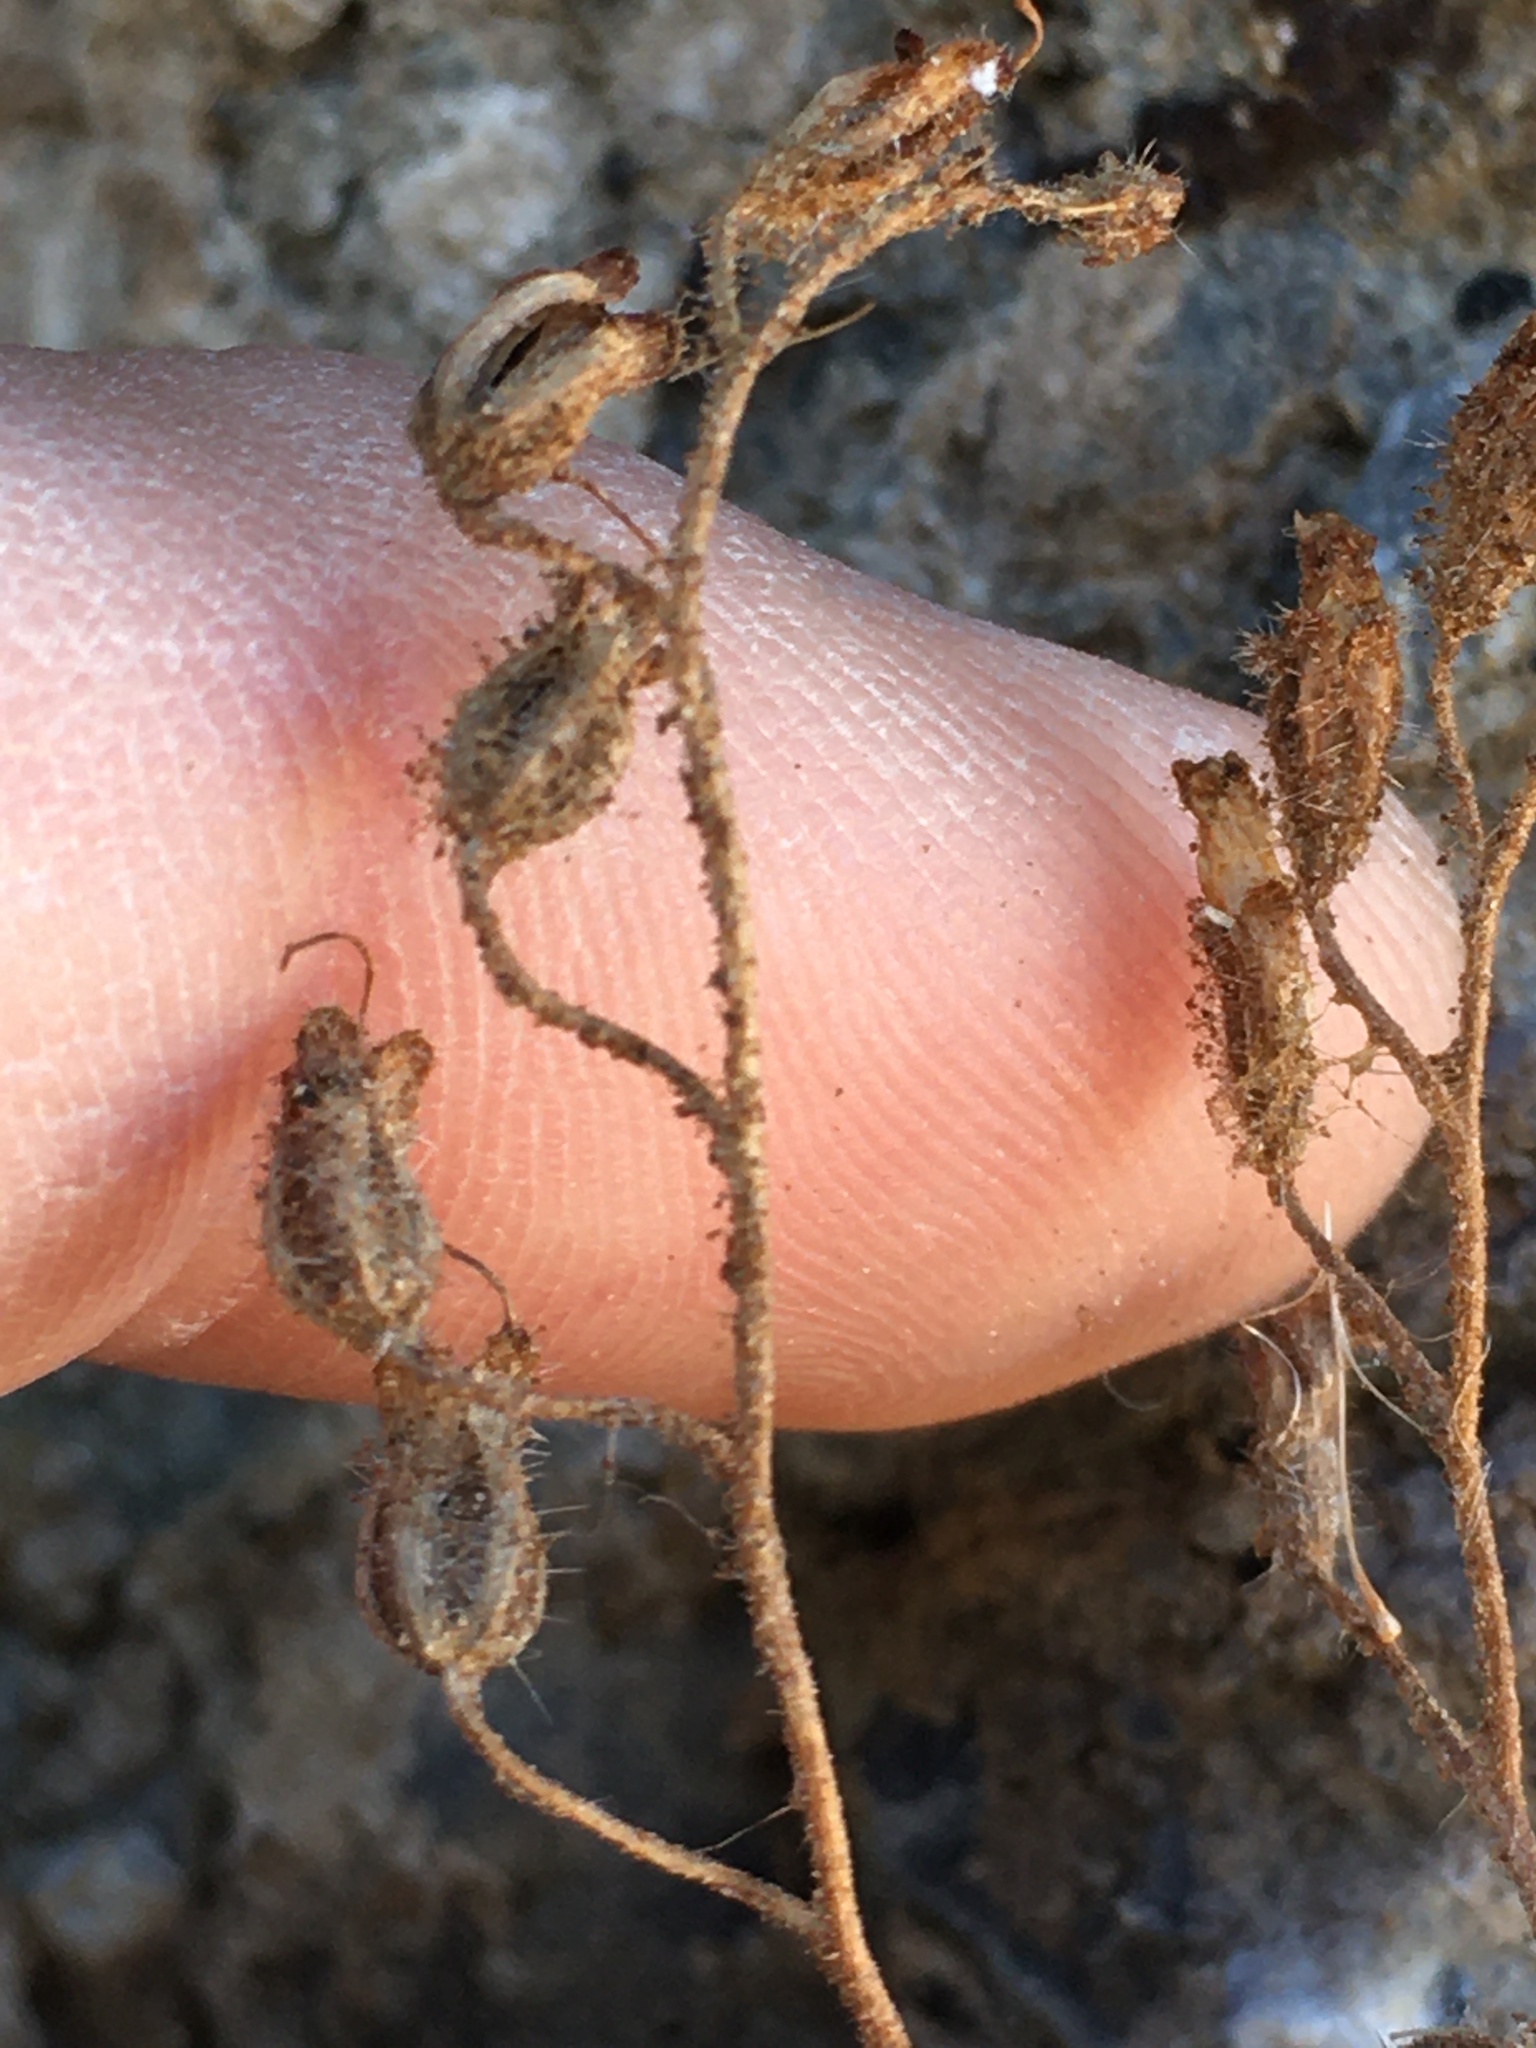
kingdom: Plantae
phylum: Tracheophyta
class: Magnoliopsida
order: Boraginales
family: Hydrophyllaceae
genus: Phacelia
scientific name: Phacelia perityloides
